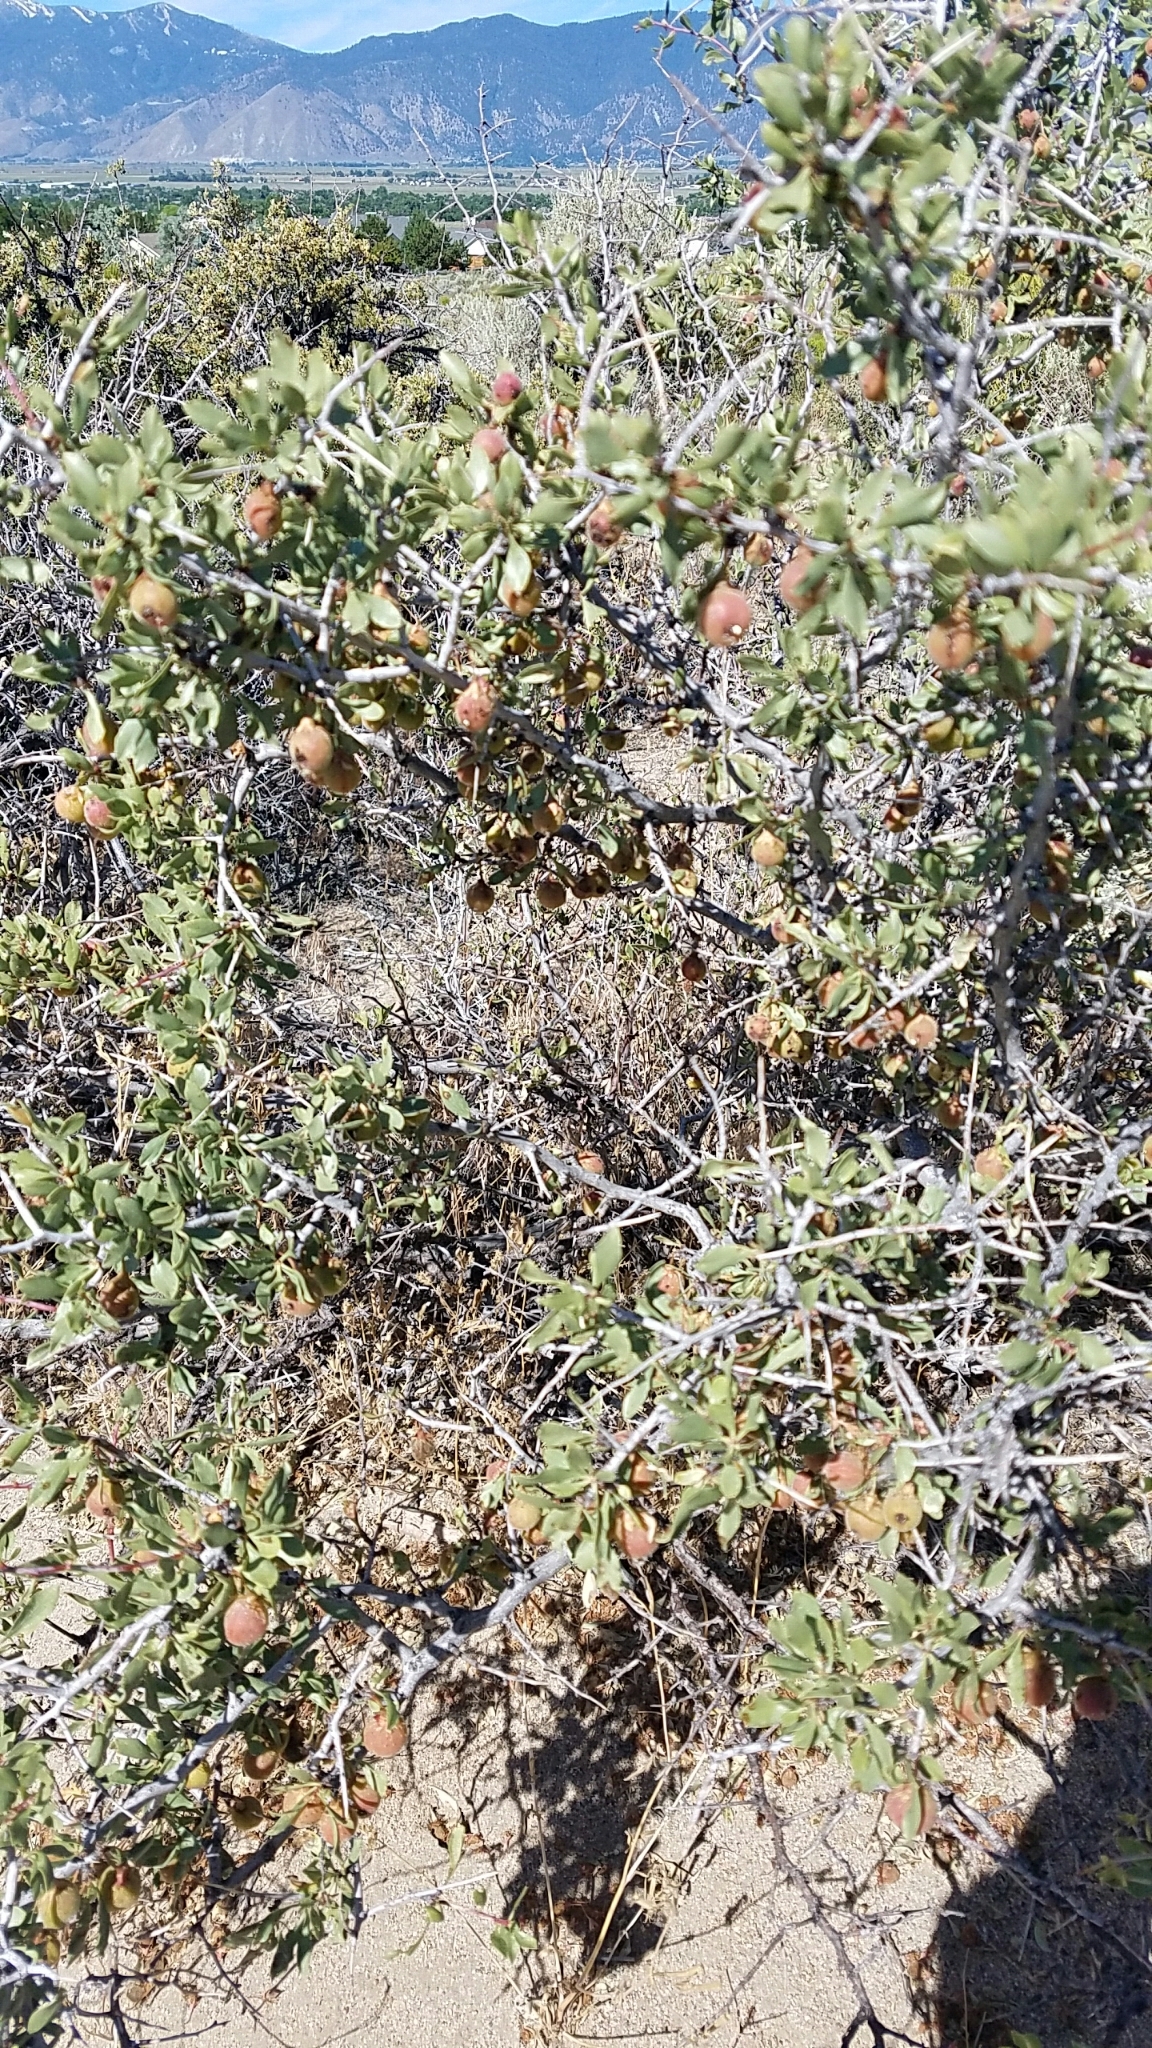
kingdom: Plantae
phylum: Tracheophyta
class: Magnoliopsida
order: Rosales
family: Rosaceae
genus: Prunus
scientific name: Prunus andersonii
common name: Desert peach
